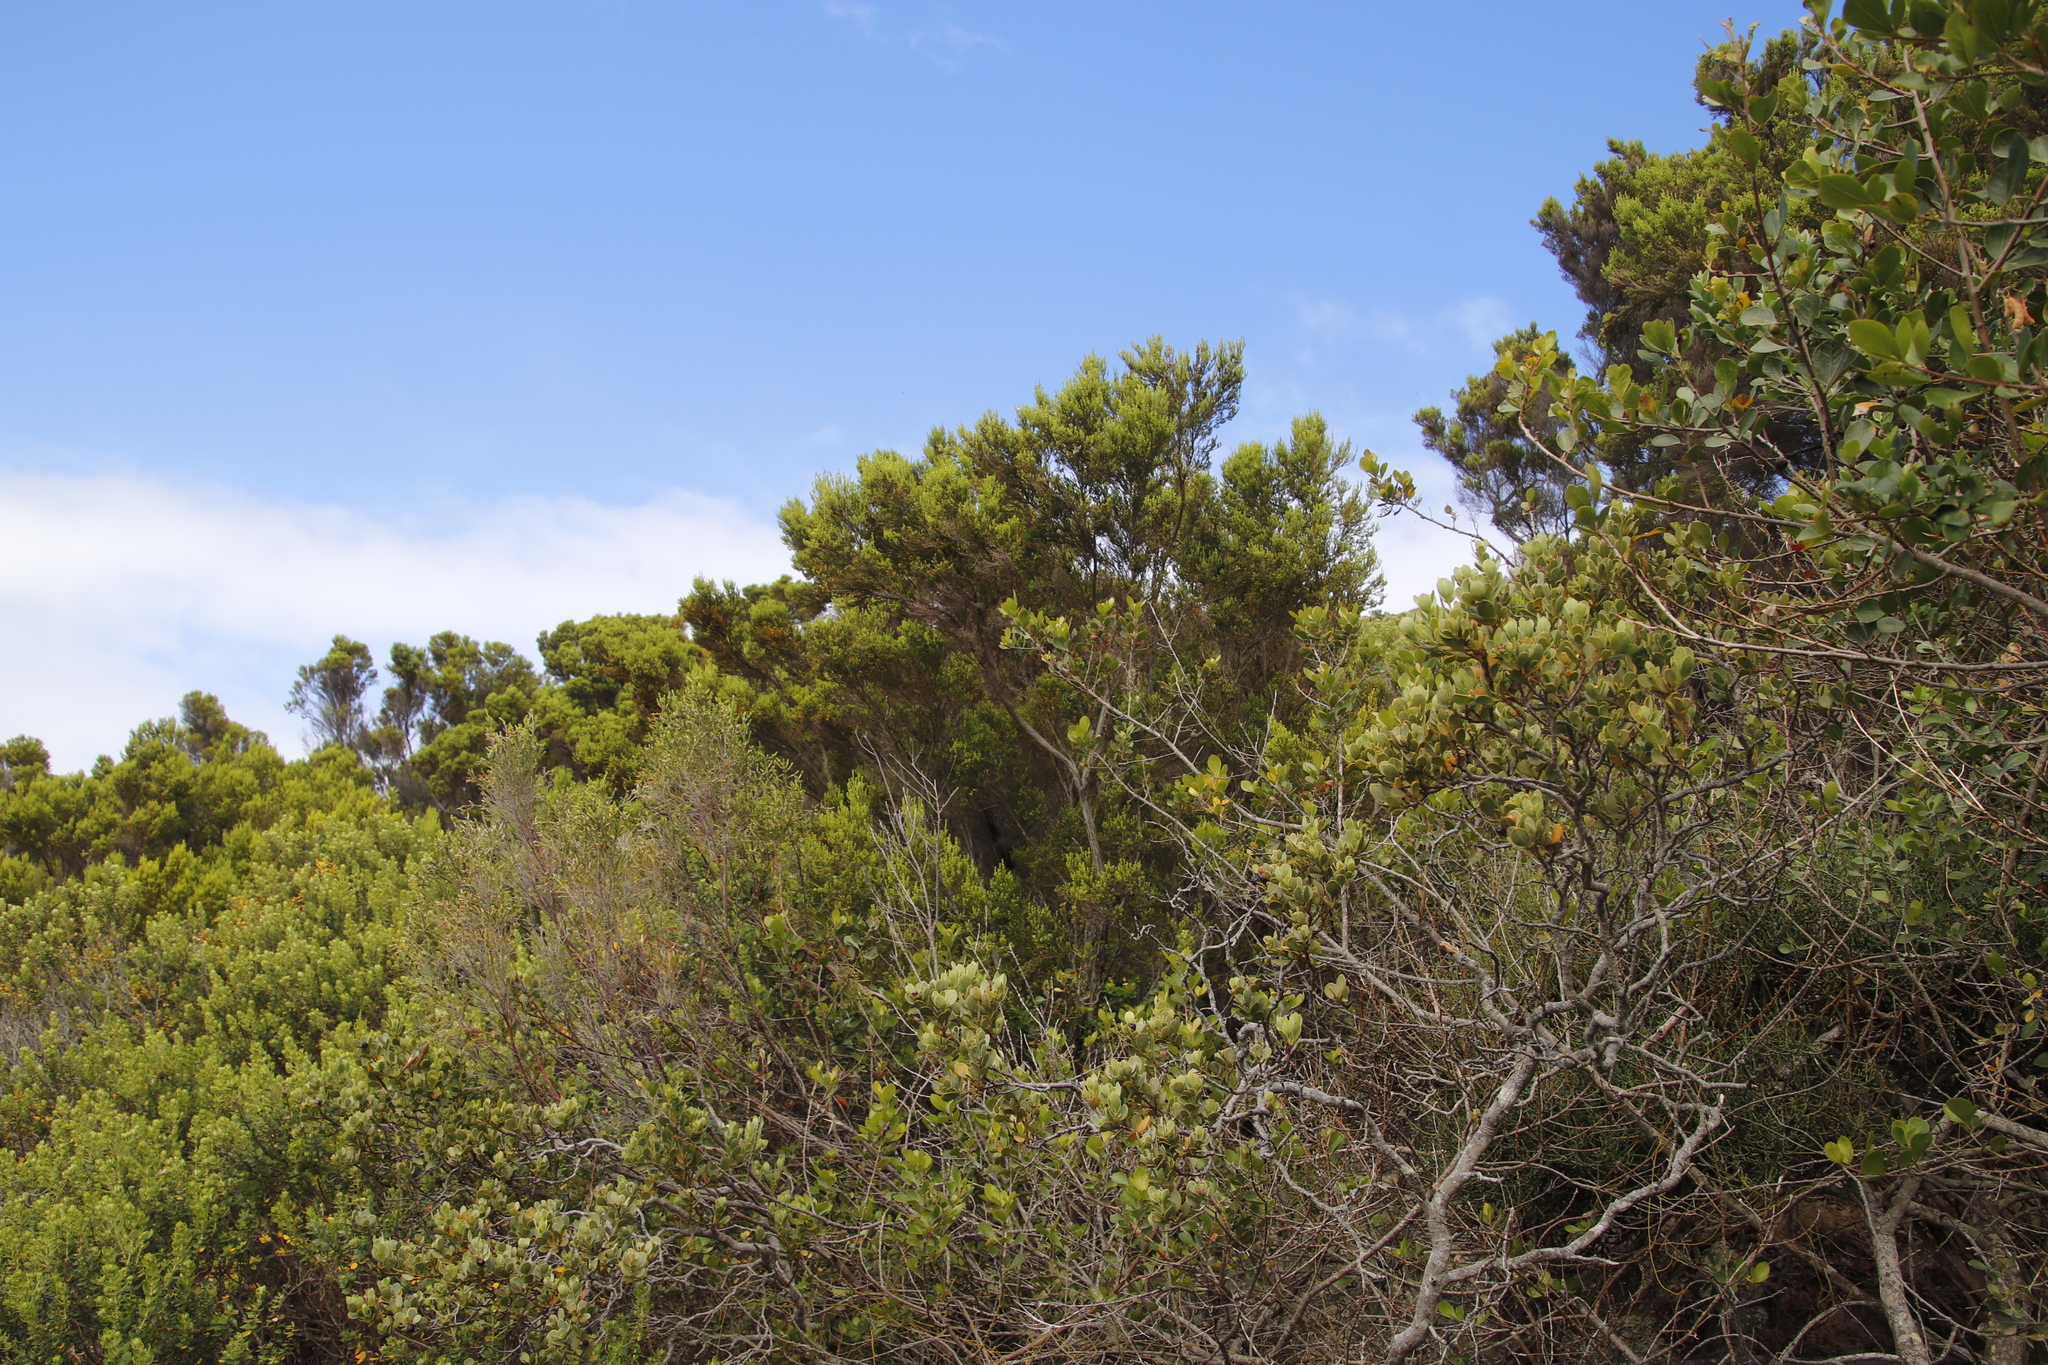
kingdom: Plantae
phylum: Tracheophyta
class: Magnoliopsida
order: Ericales
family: Ericaceae
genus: Erica
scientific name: Erica tristis
